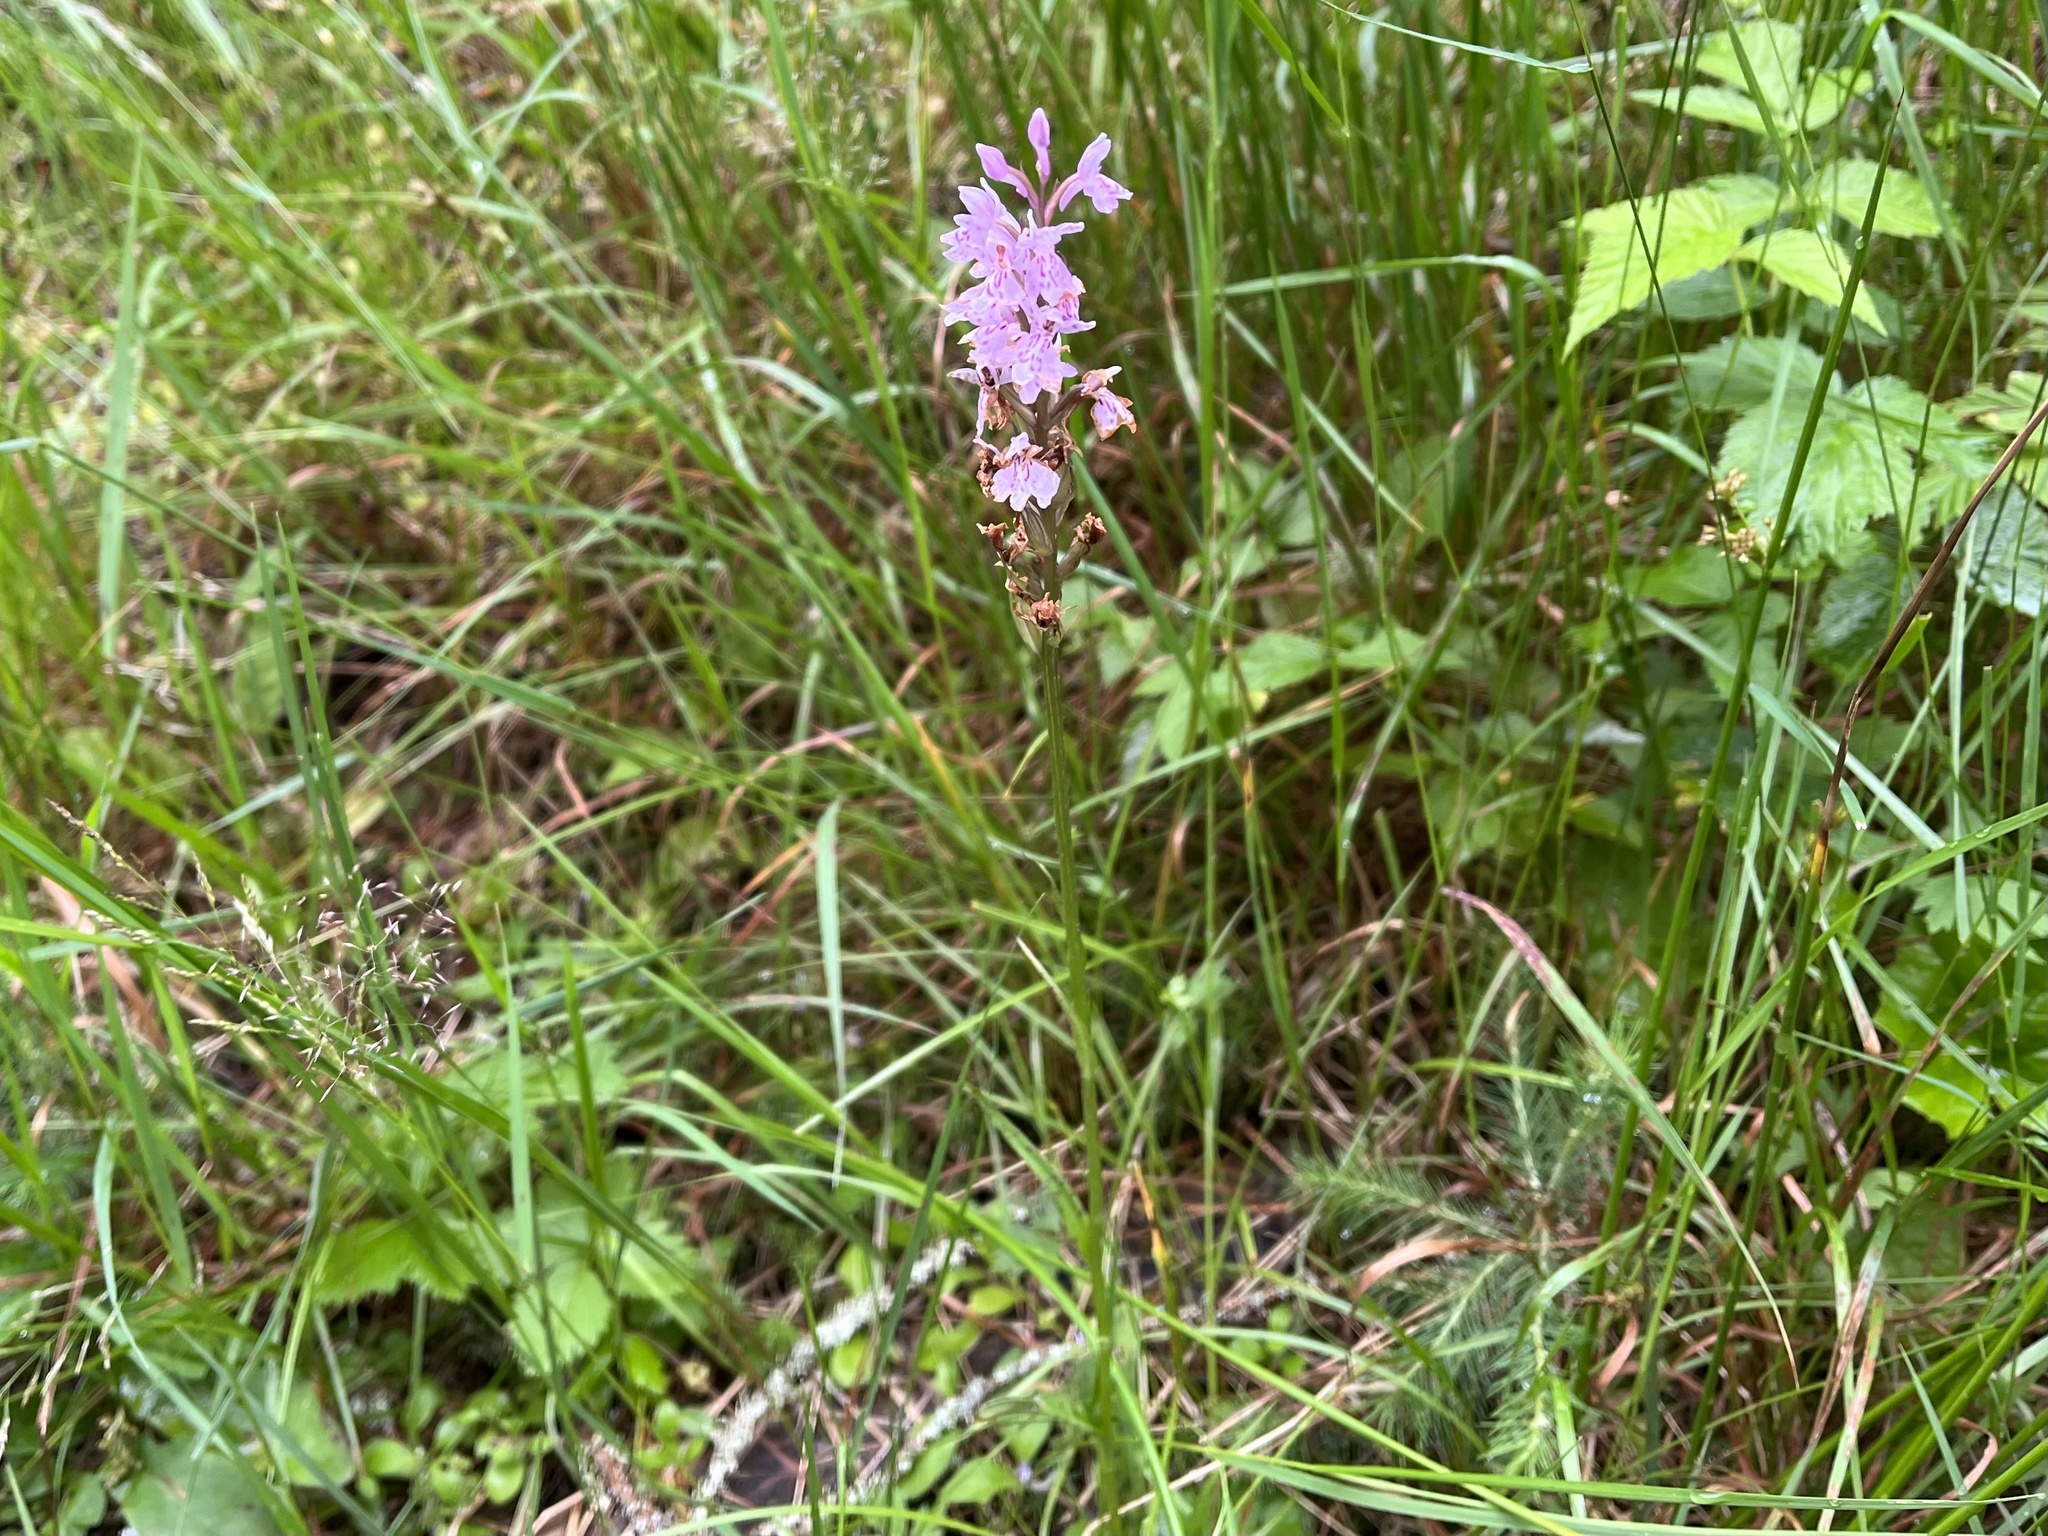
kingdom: Plantae
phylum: Tracheophyta
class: Liliopsida
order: Asparagales
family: Orchidaceae
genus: Dactylorhiza
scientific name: Dactylorhiza maculata
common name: Heath spotted-orchid
